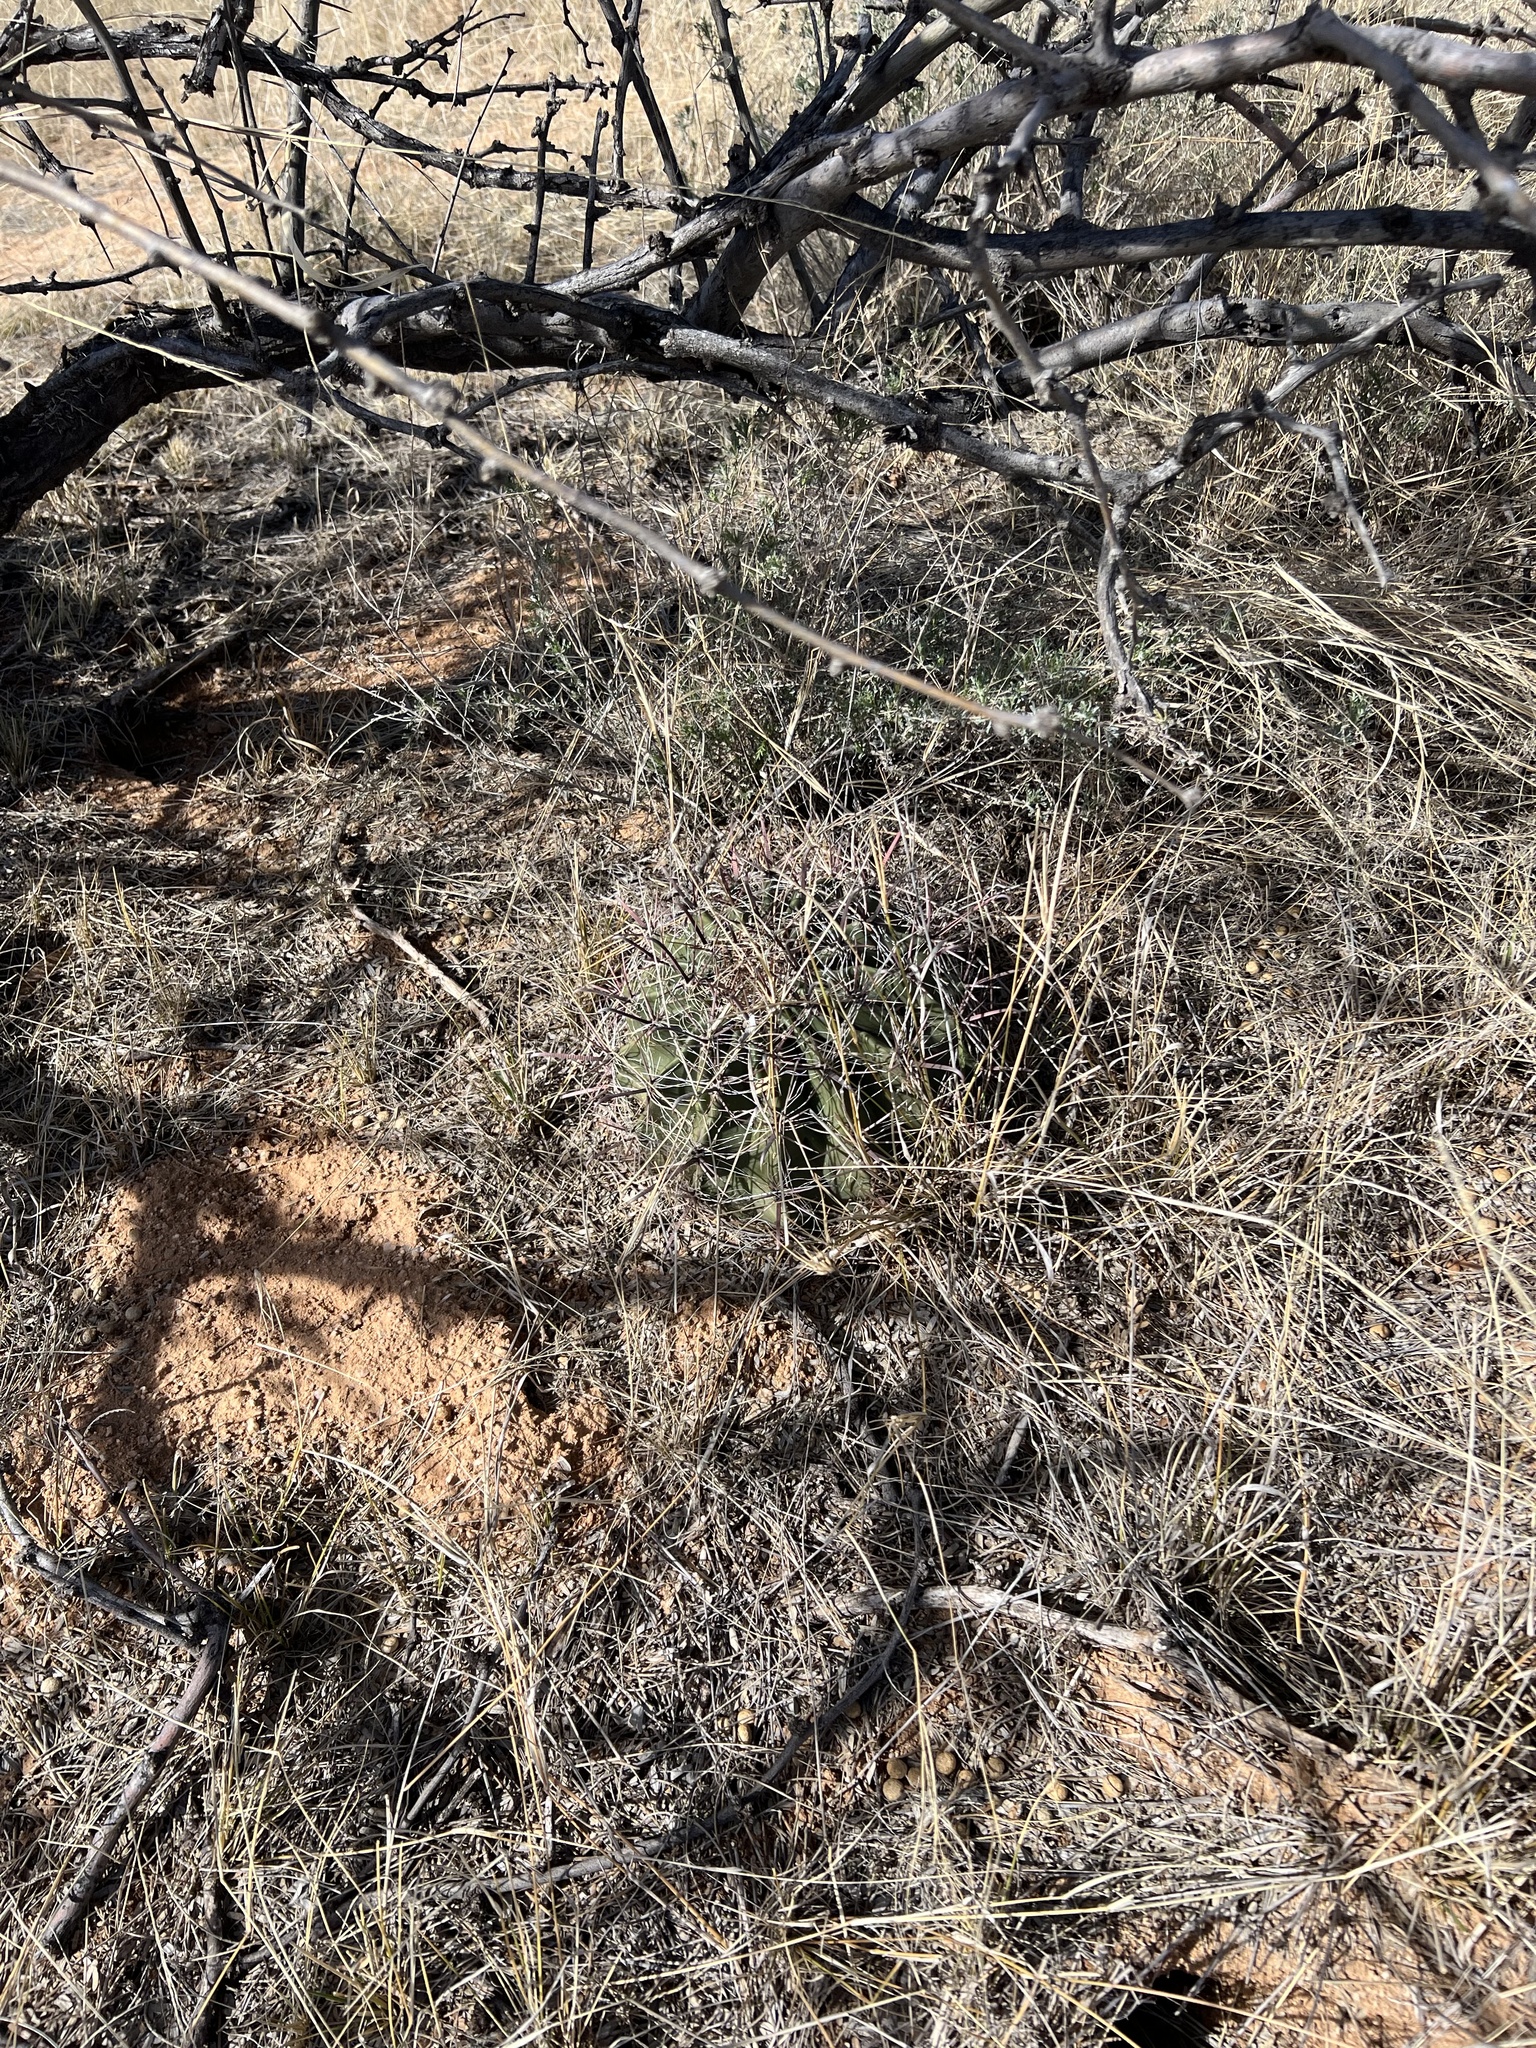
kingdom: Plantae
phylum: Tracheophyta
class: Magnoliopsida
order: Caryophyllales
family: Cactaceae
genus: Ferocactus
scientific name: Ferocactus wislizeni
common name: Candy barrel cactus
